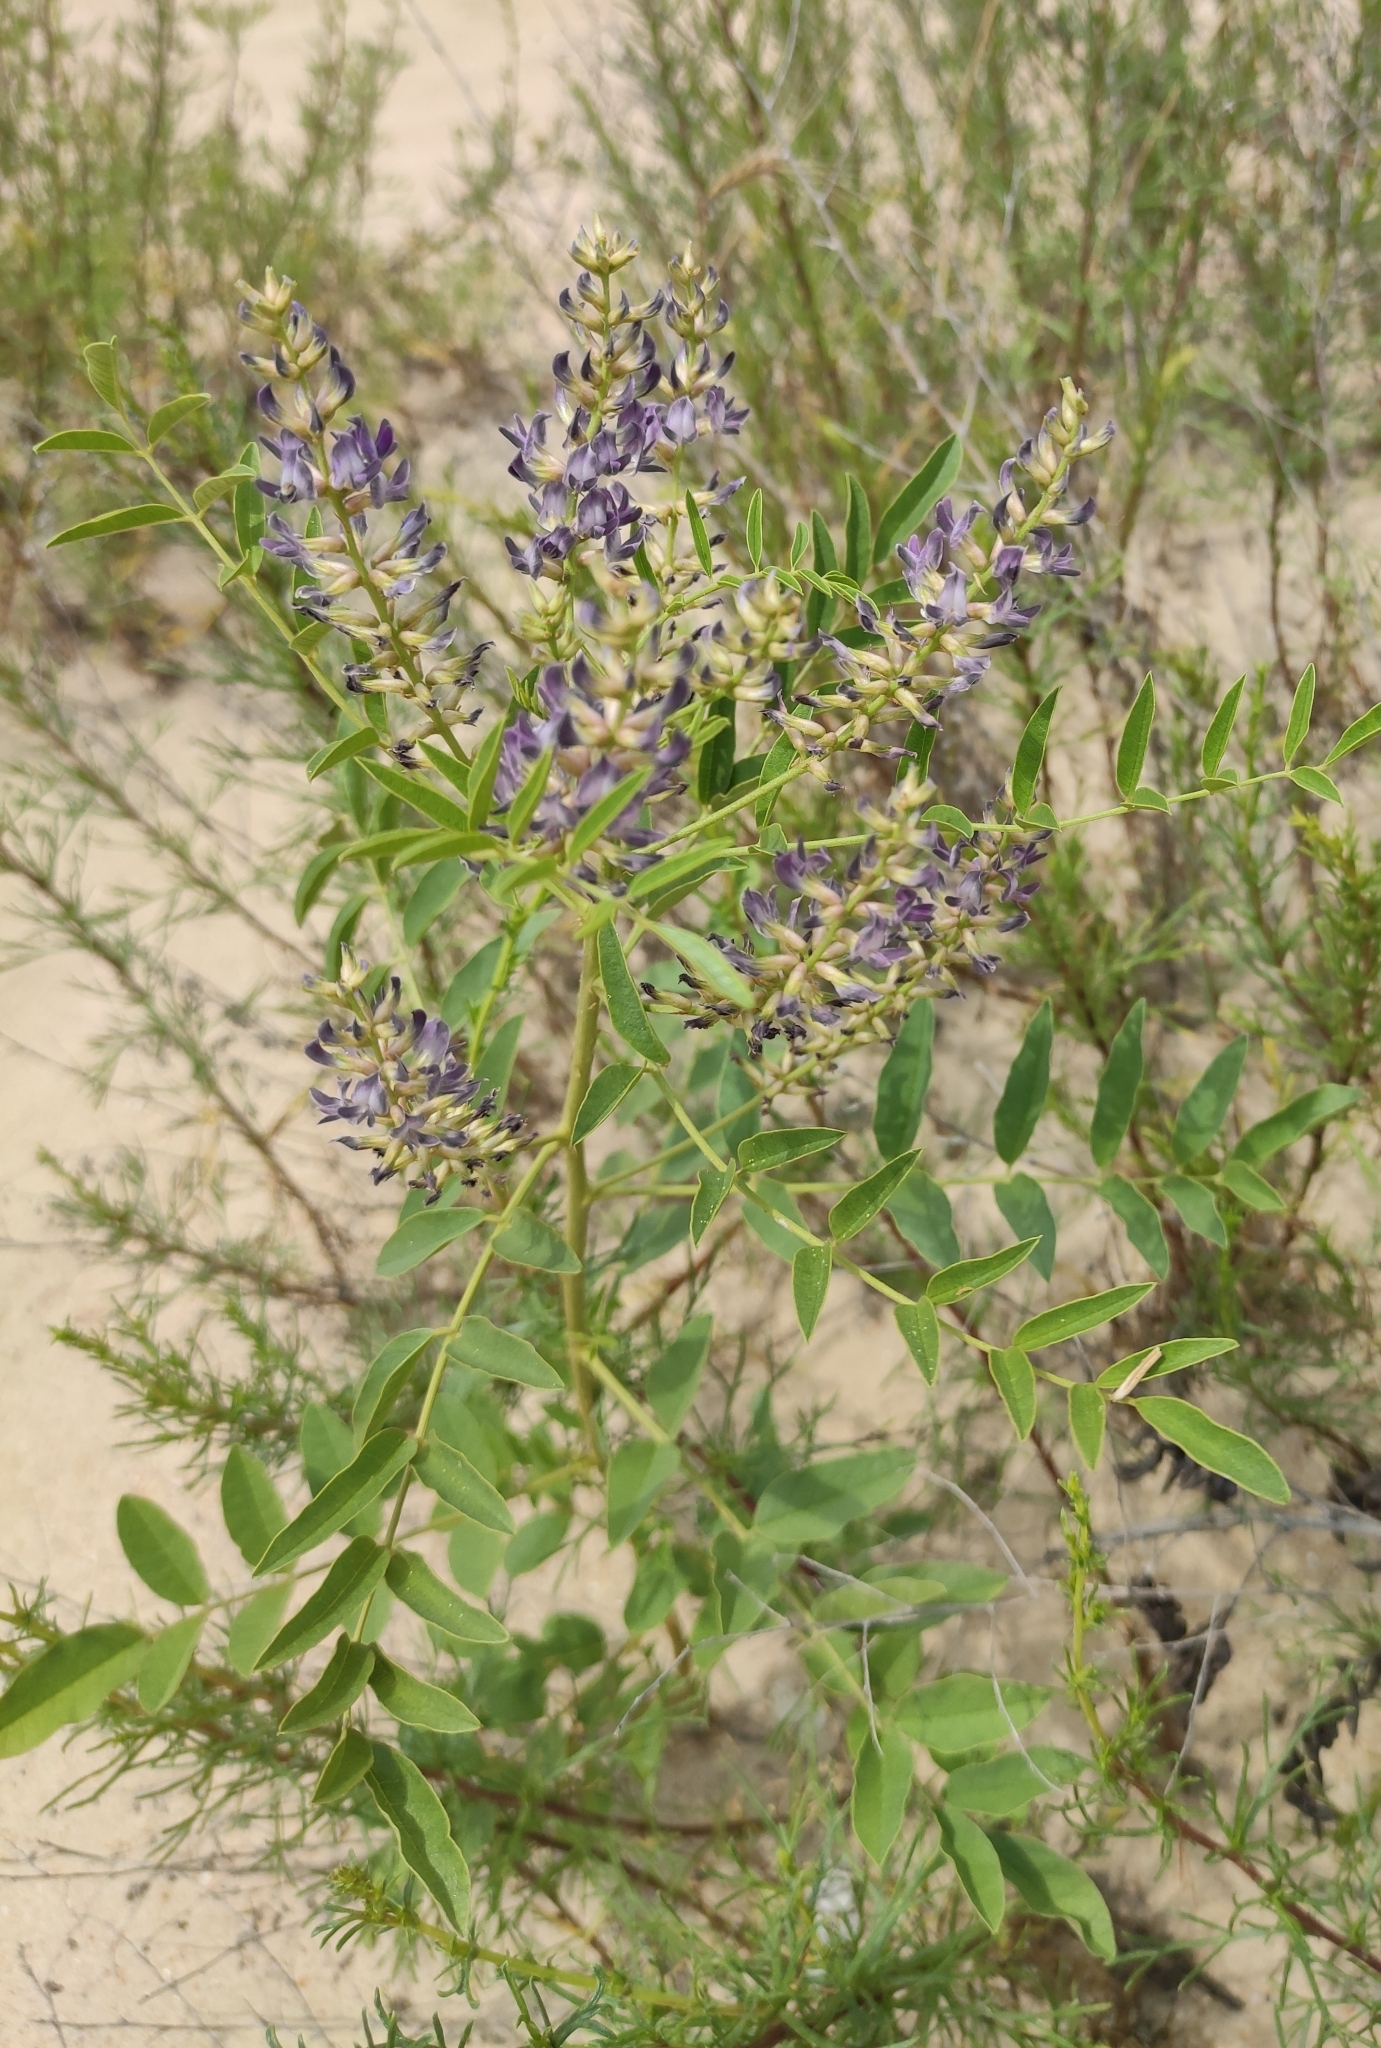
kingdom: Plantae
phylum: Tracheophyta
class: Magnoliopsida
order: Fabales
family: Fabaceae
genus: Glycyrrhiza
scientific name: Glycyrrhiza glabra
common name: Liquorice
